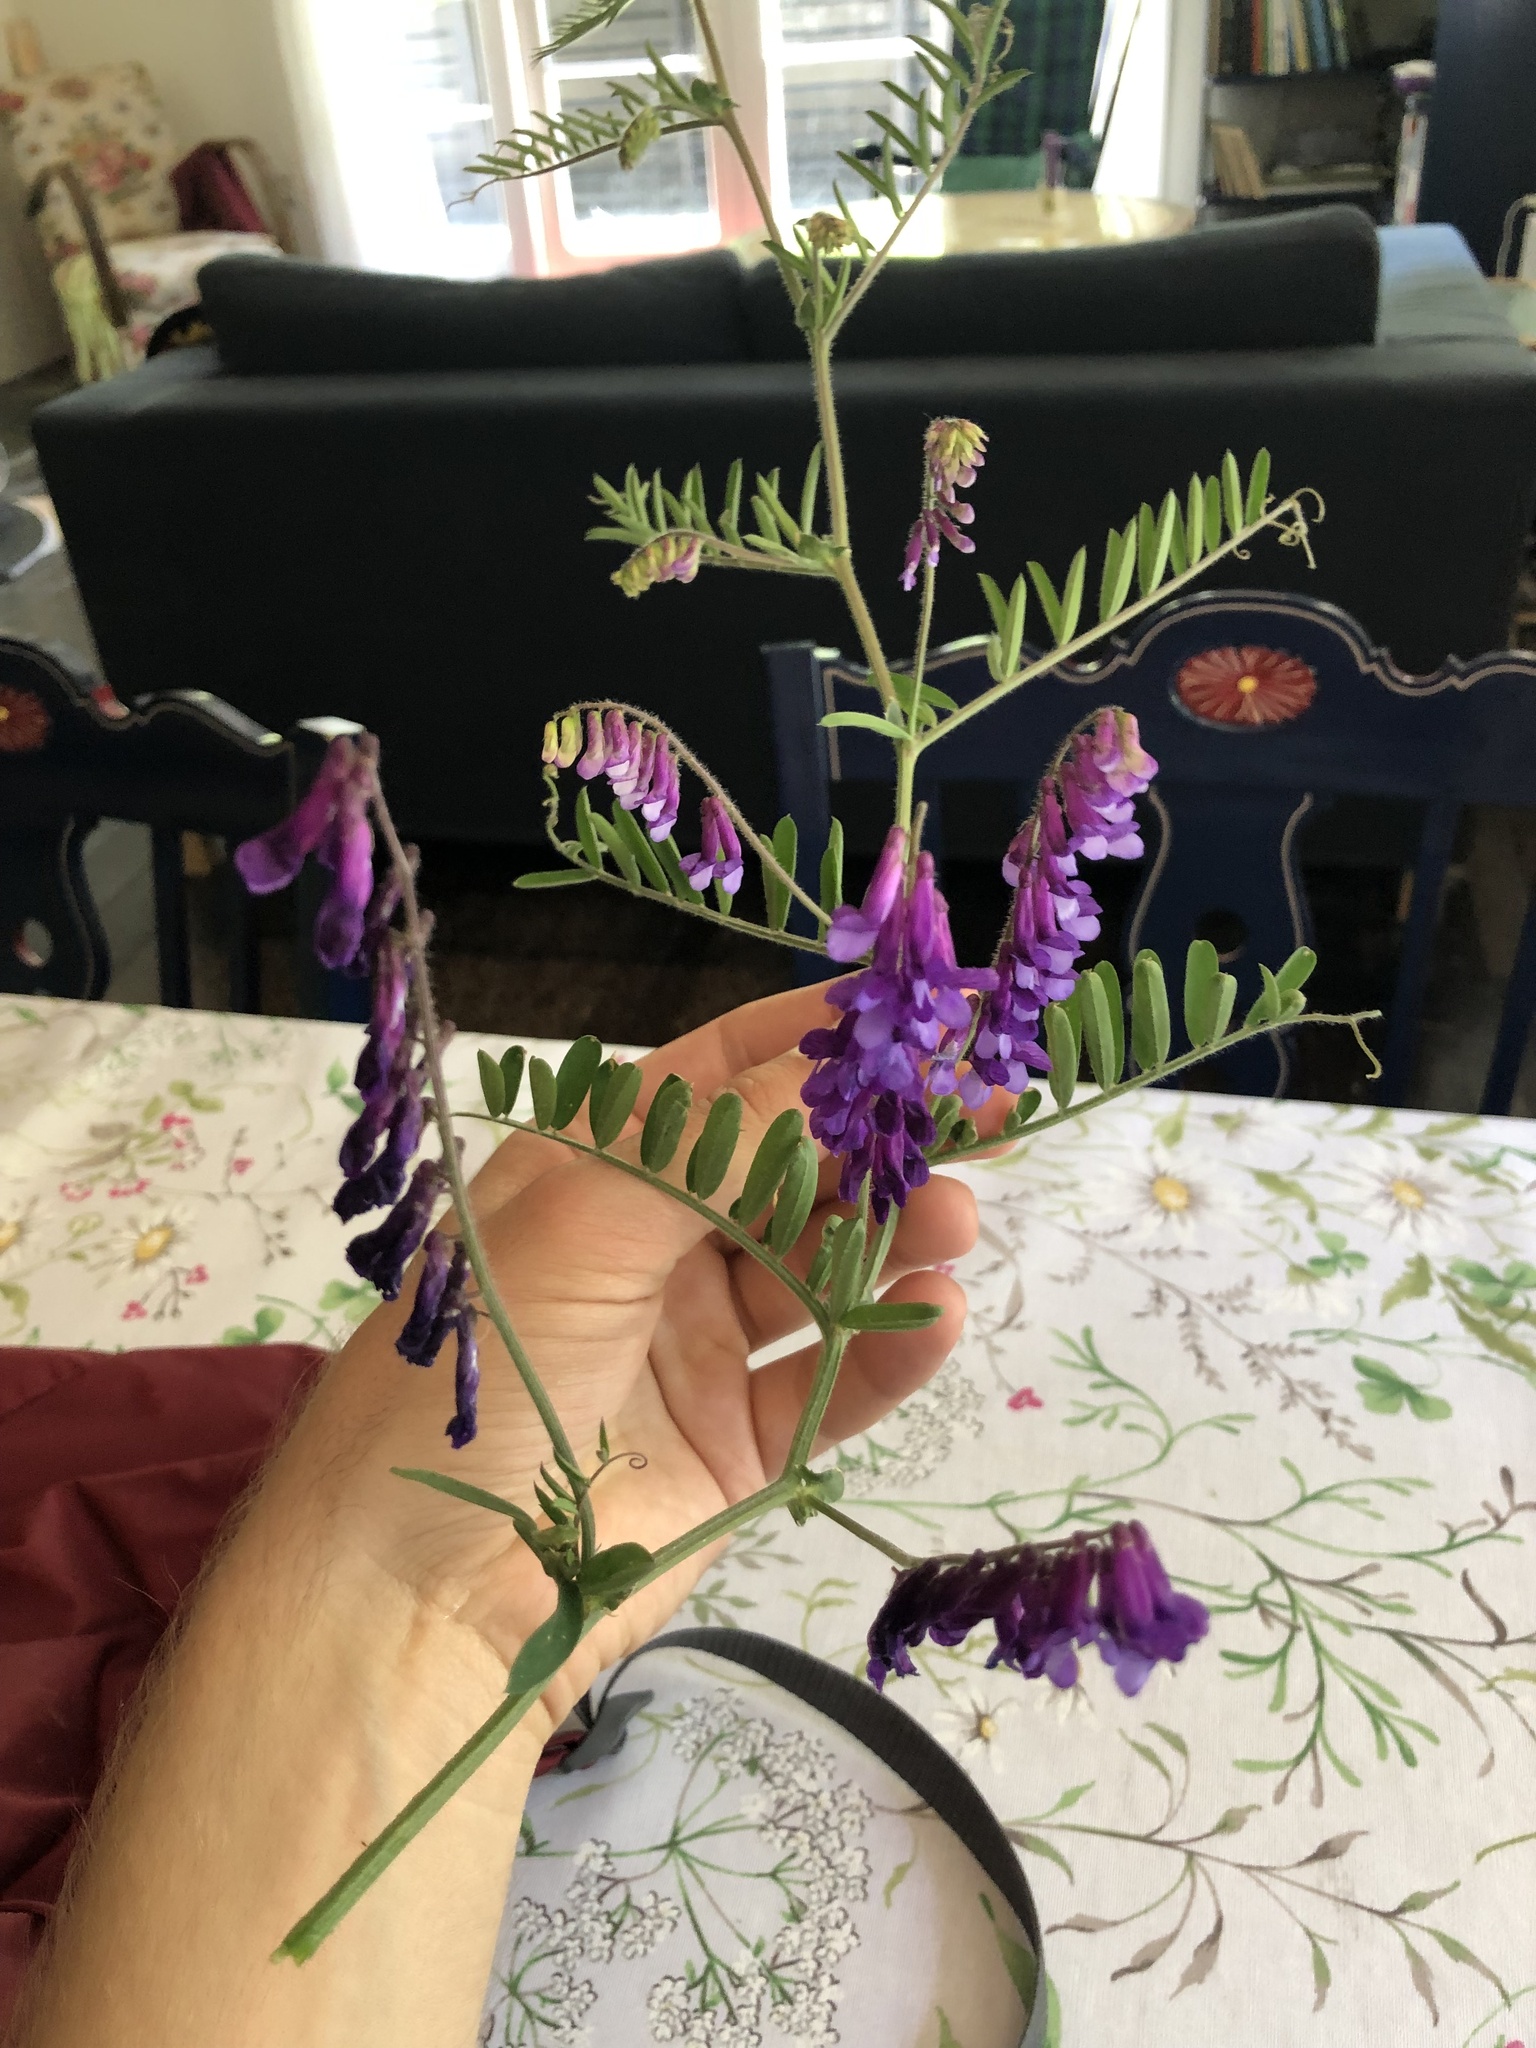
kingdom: Plantae
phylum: Tracheophyta
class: Magnoliopsida
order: Fabales
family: Fabaceae
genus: Vicia
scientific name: Vicia villosa
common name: Fodder vetch
